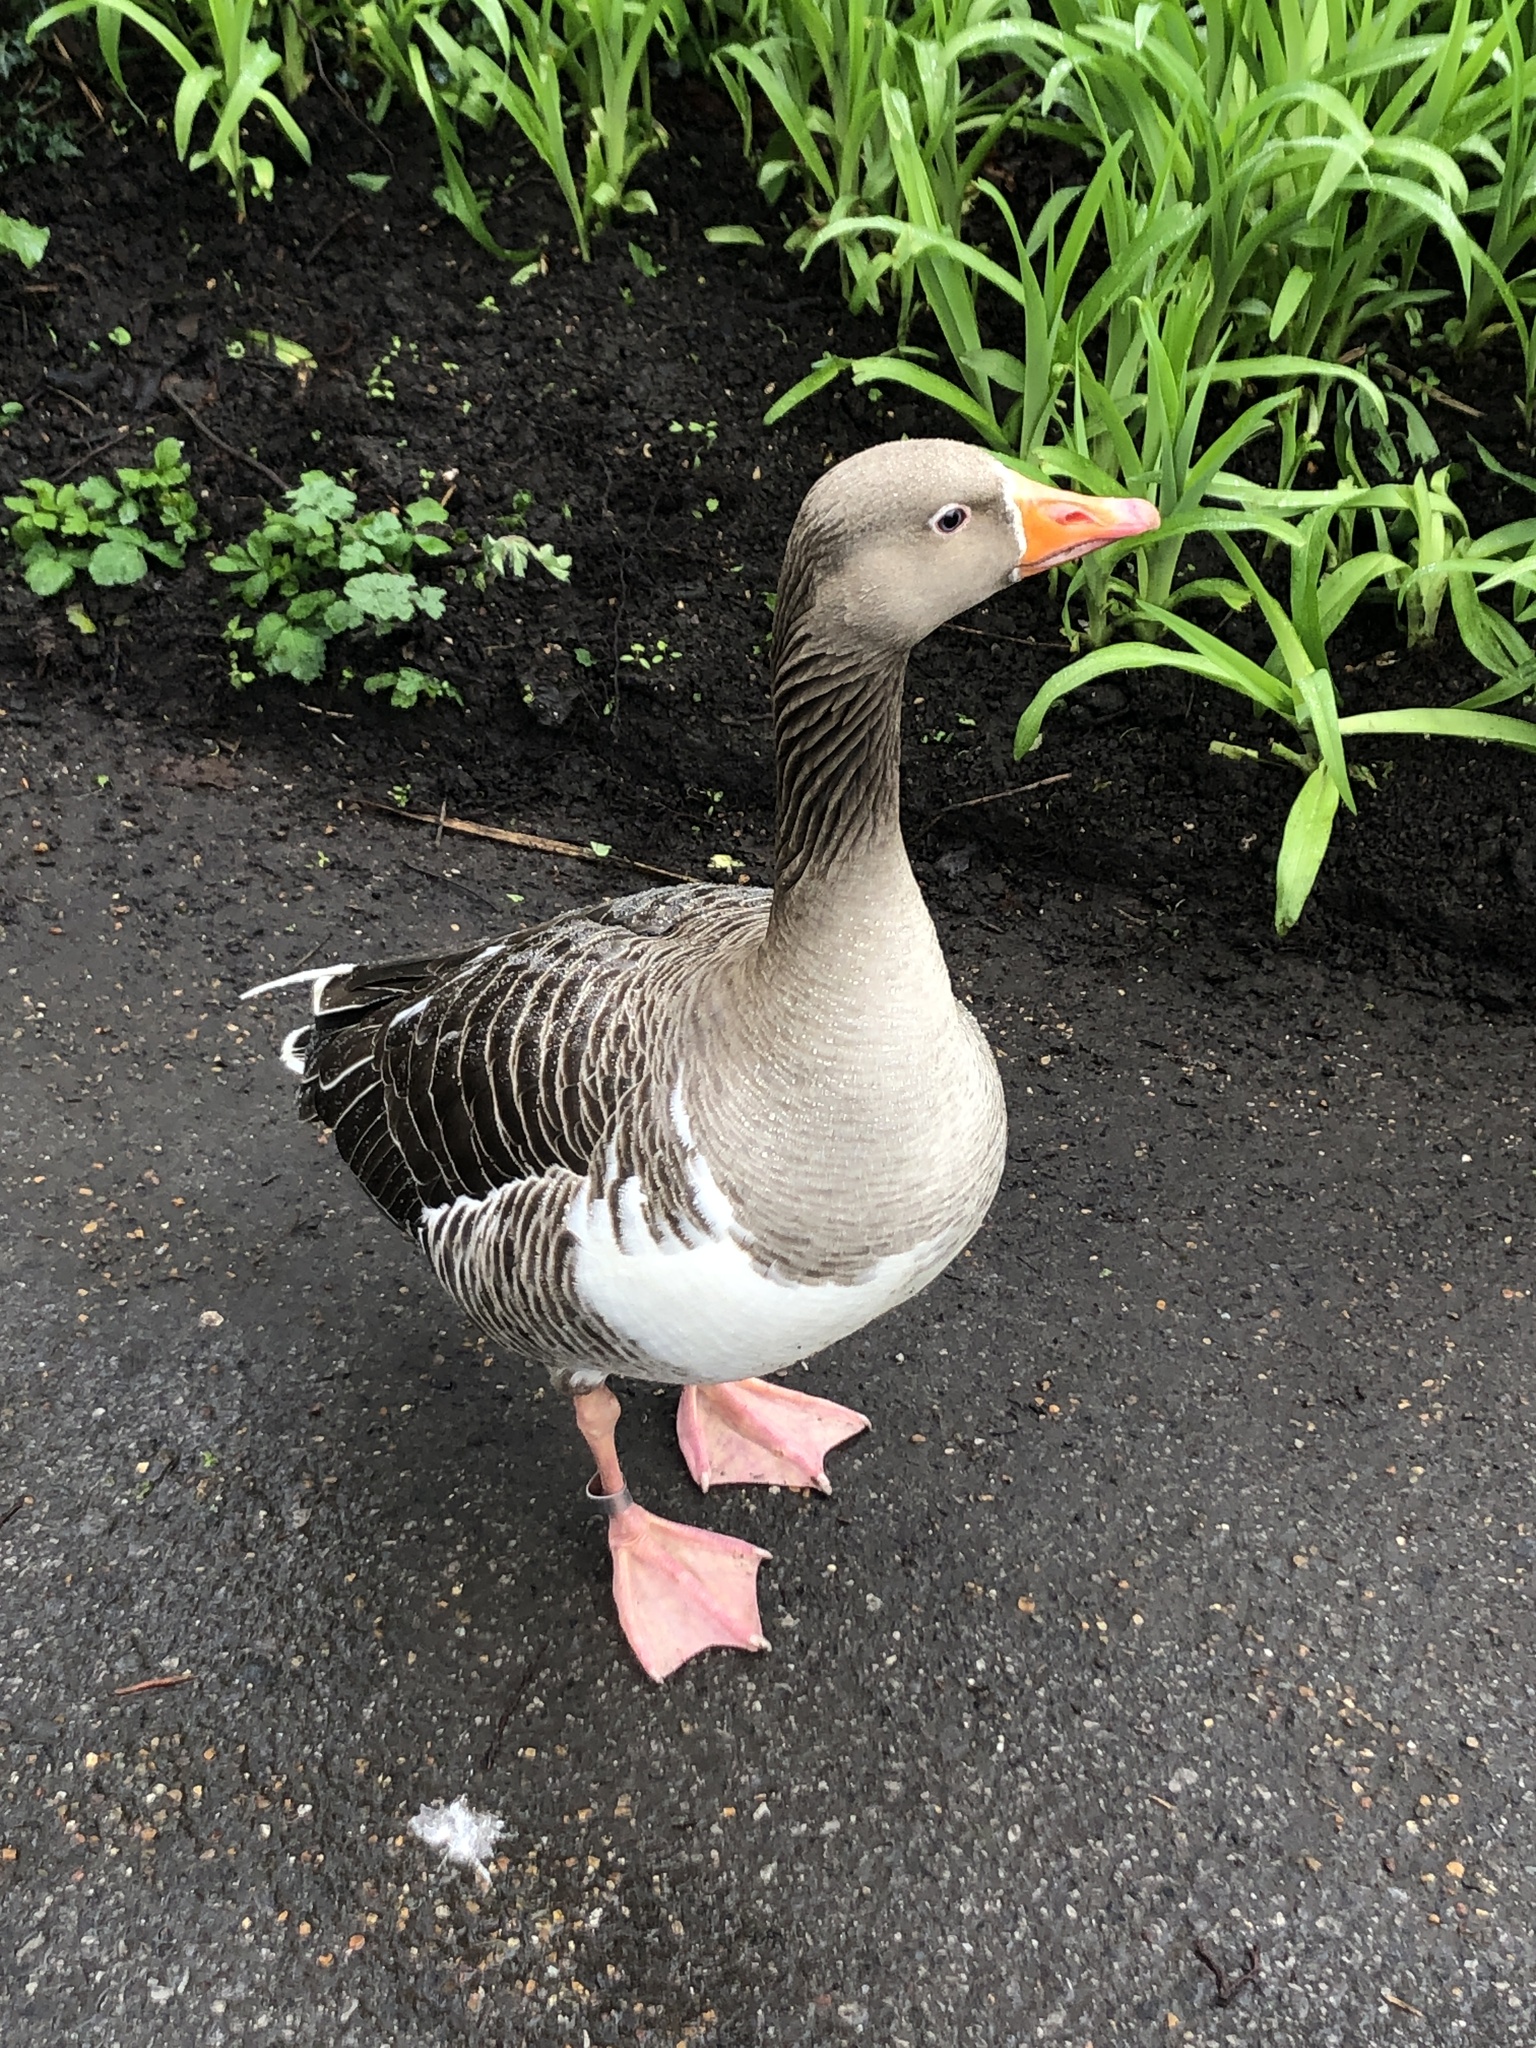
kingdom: Animalia
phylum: Chordata
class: Aves
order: Anseriformes
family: Anatidae
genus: Anser
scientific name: Anser anser
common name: Greylag goose
